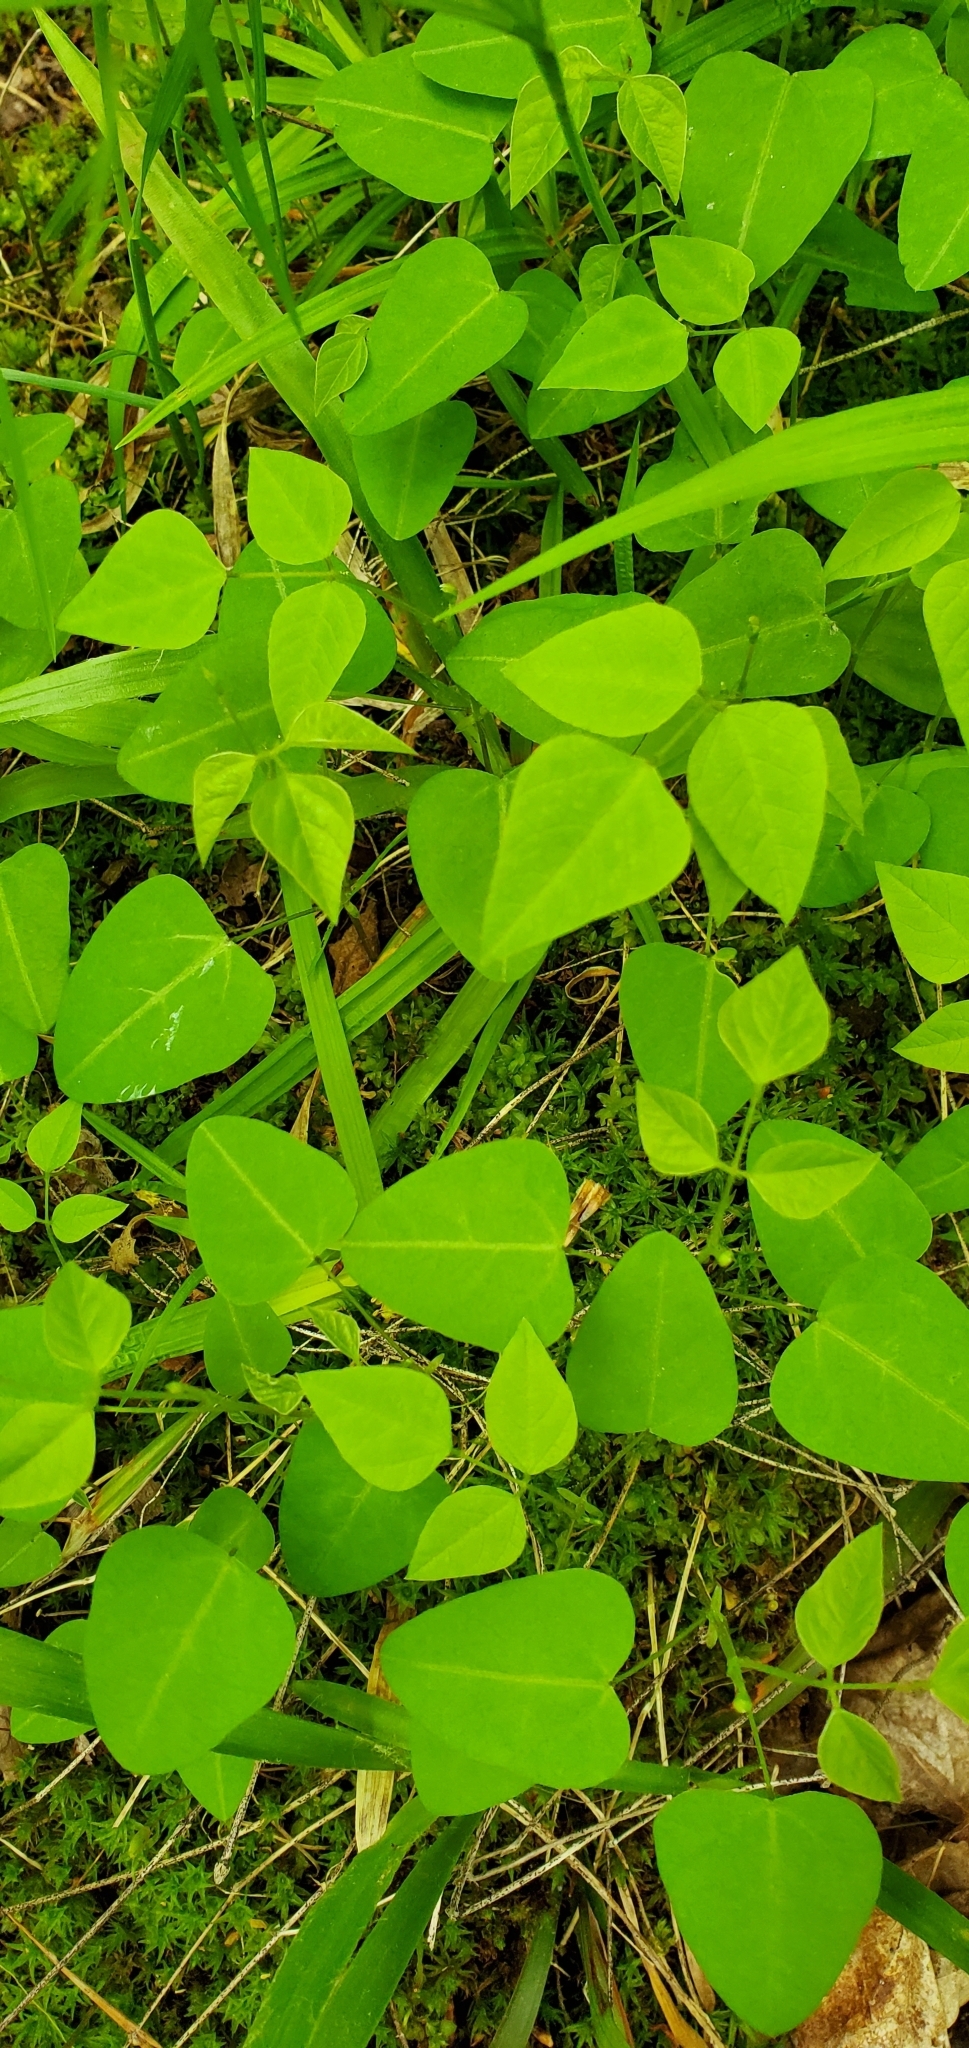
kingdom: Plantae
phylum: Tracheophyta
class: Magnoliopsida
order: Fabales
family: Fabaceae
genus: Amphicarpaea
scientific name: Amphicarpaea bracteata
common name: American hog peanut
